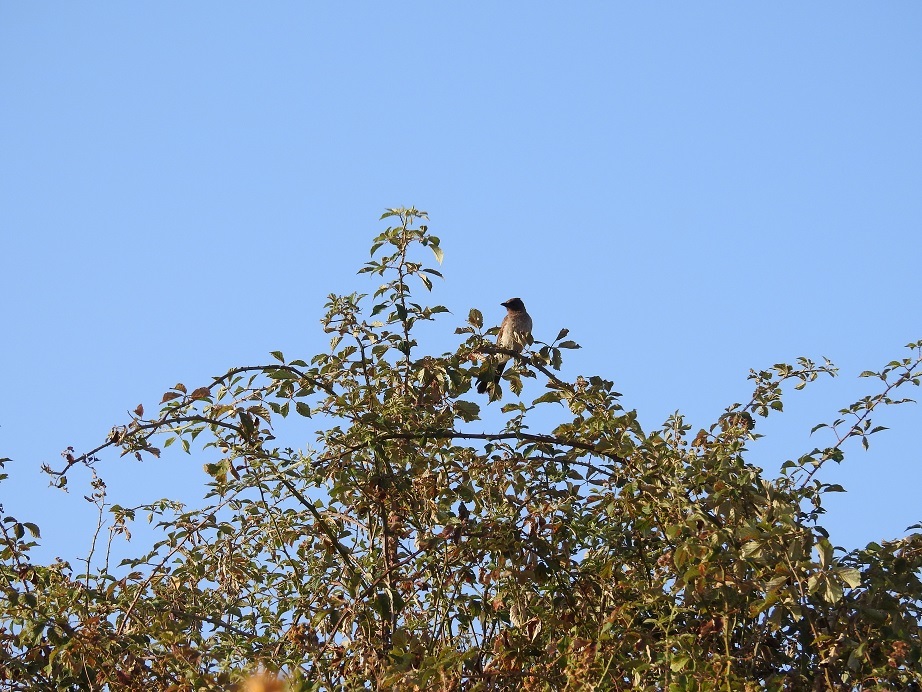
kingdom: Animalia
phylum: Chordata
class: Aves
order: Passeriformes
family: Pycnonotidae
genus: Pycnonotus
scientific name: Pycnonotus barbatus
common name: Common bulbul
